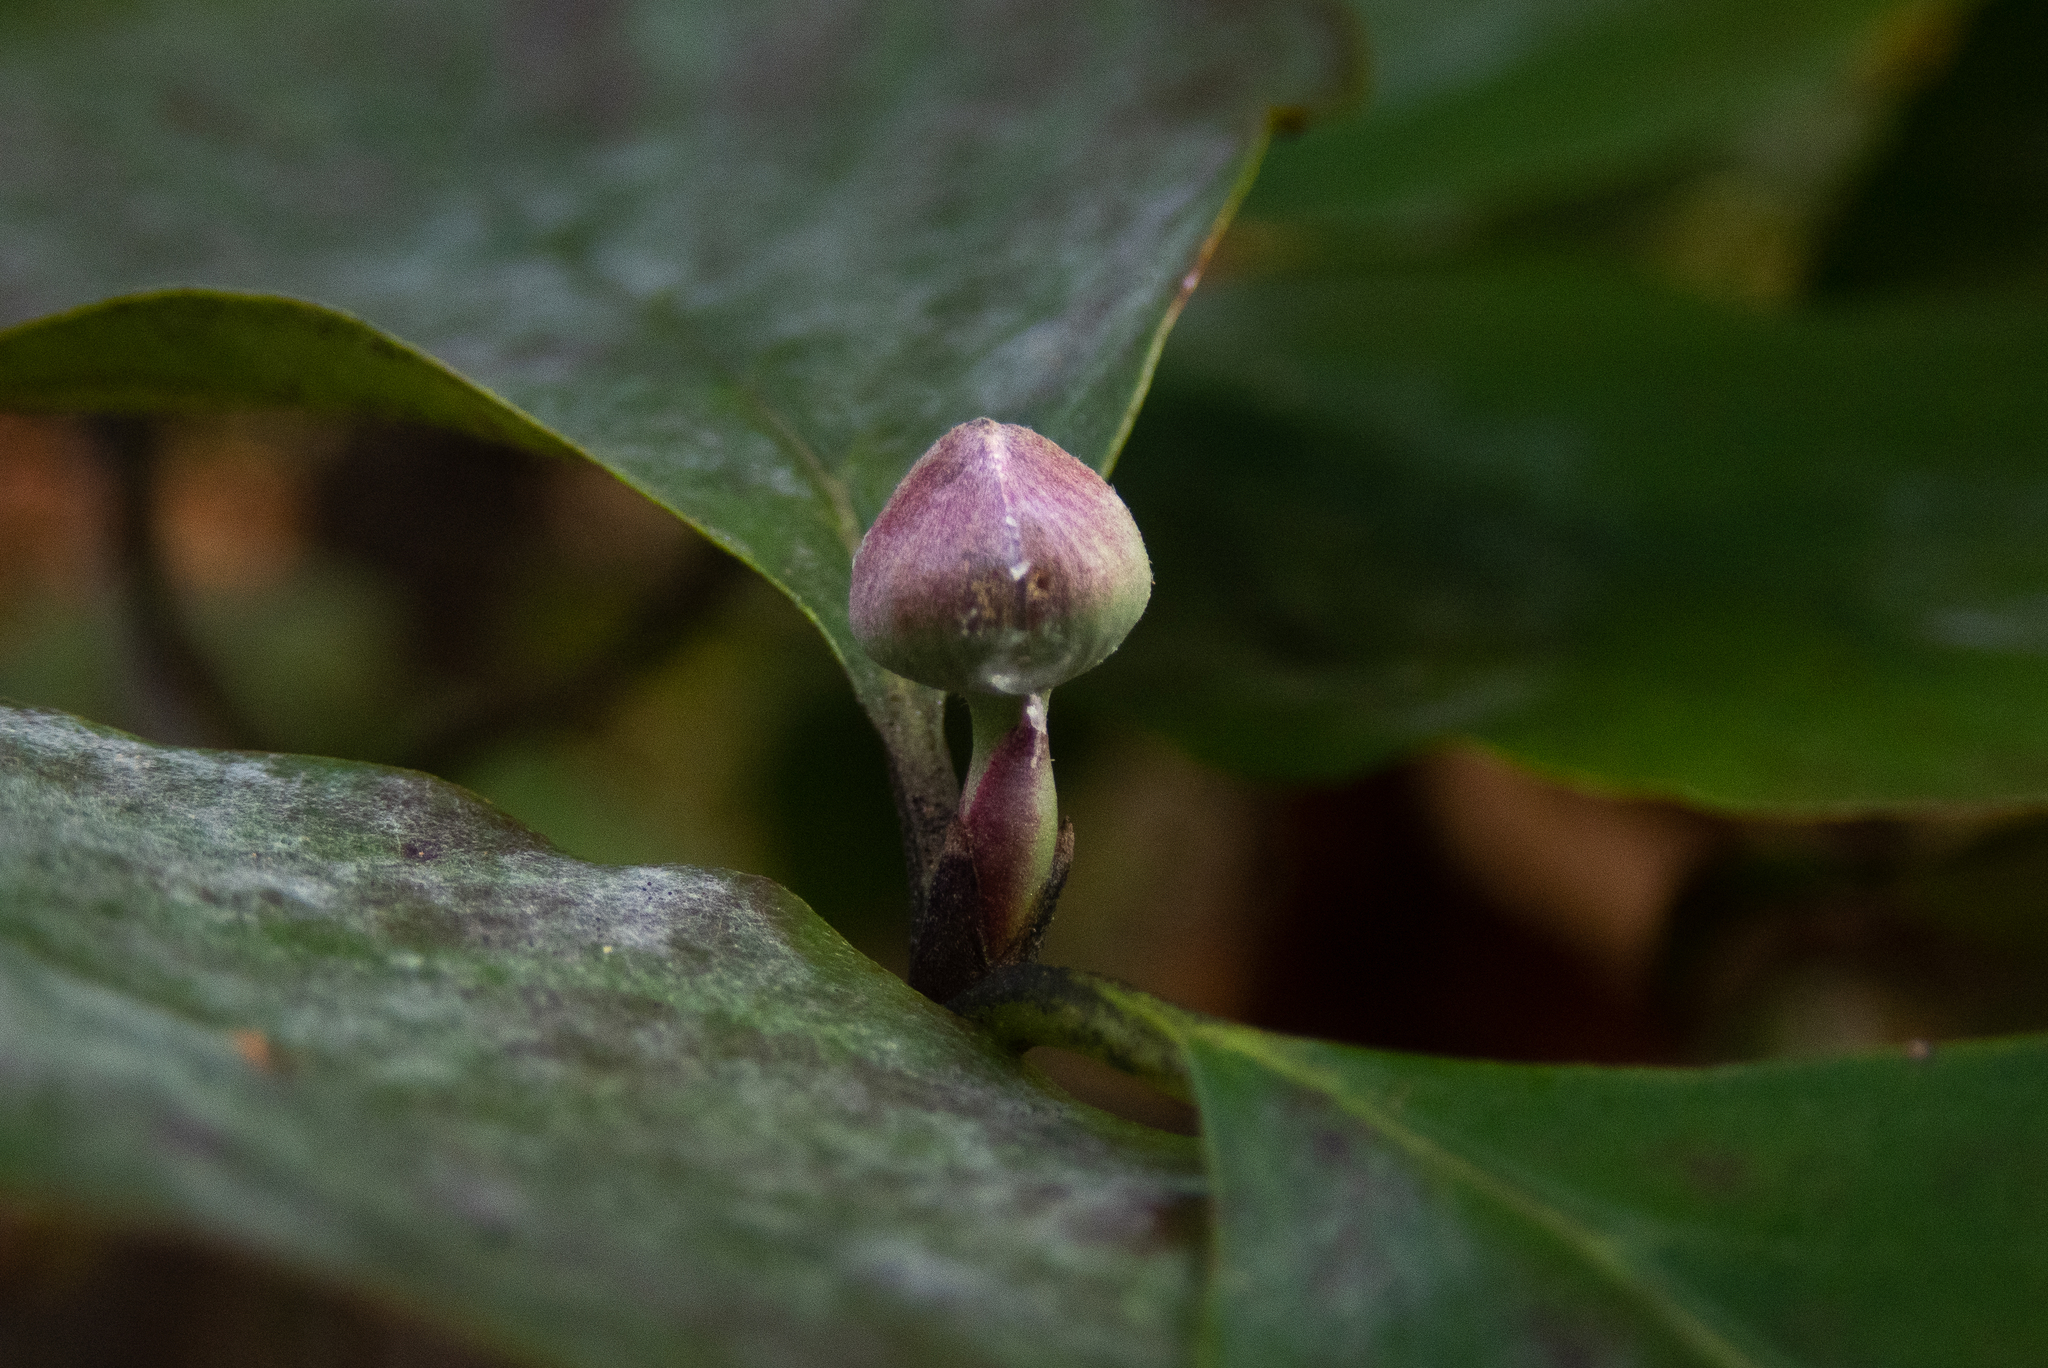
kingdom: Plantae
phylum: Tracheophyta
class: Magnoliopsida
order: Cornales
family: Cornaceae
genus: Cornus
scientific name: Cornus florida
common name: Flowering dogwood
